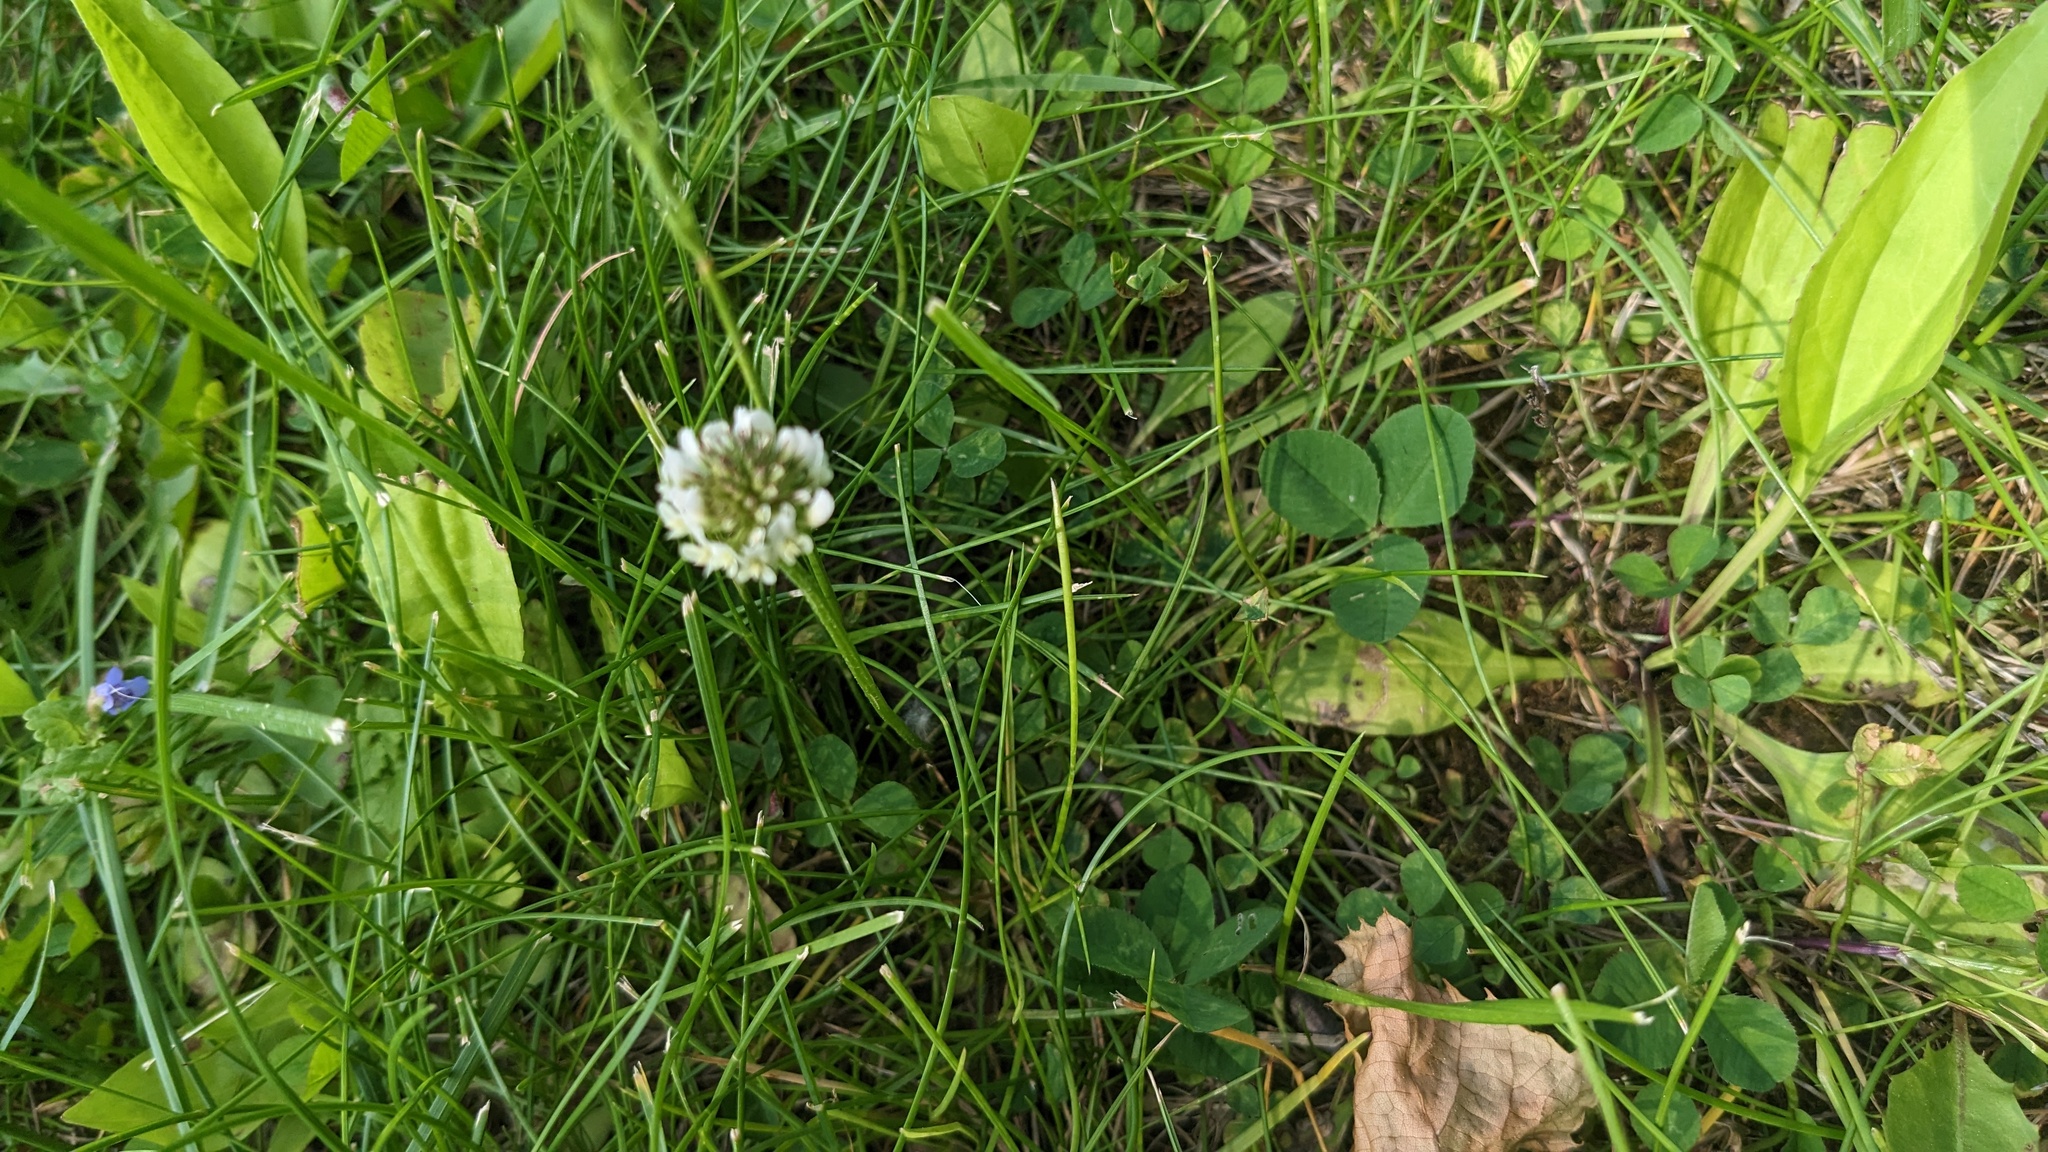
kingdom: Plantae
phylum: Tracheophyta
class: Magnoliopsida
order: Fabales
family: Fabaceae
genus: Trifolium
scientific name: Trifolium repens
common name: White clover
